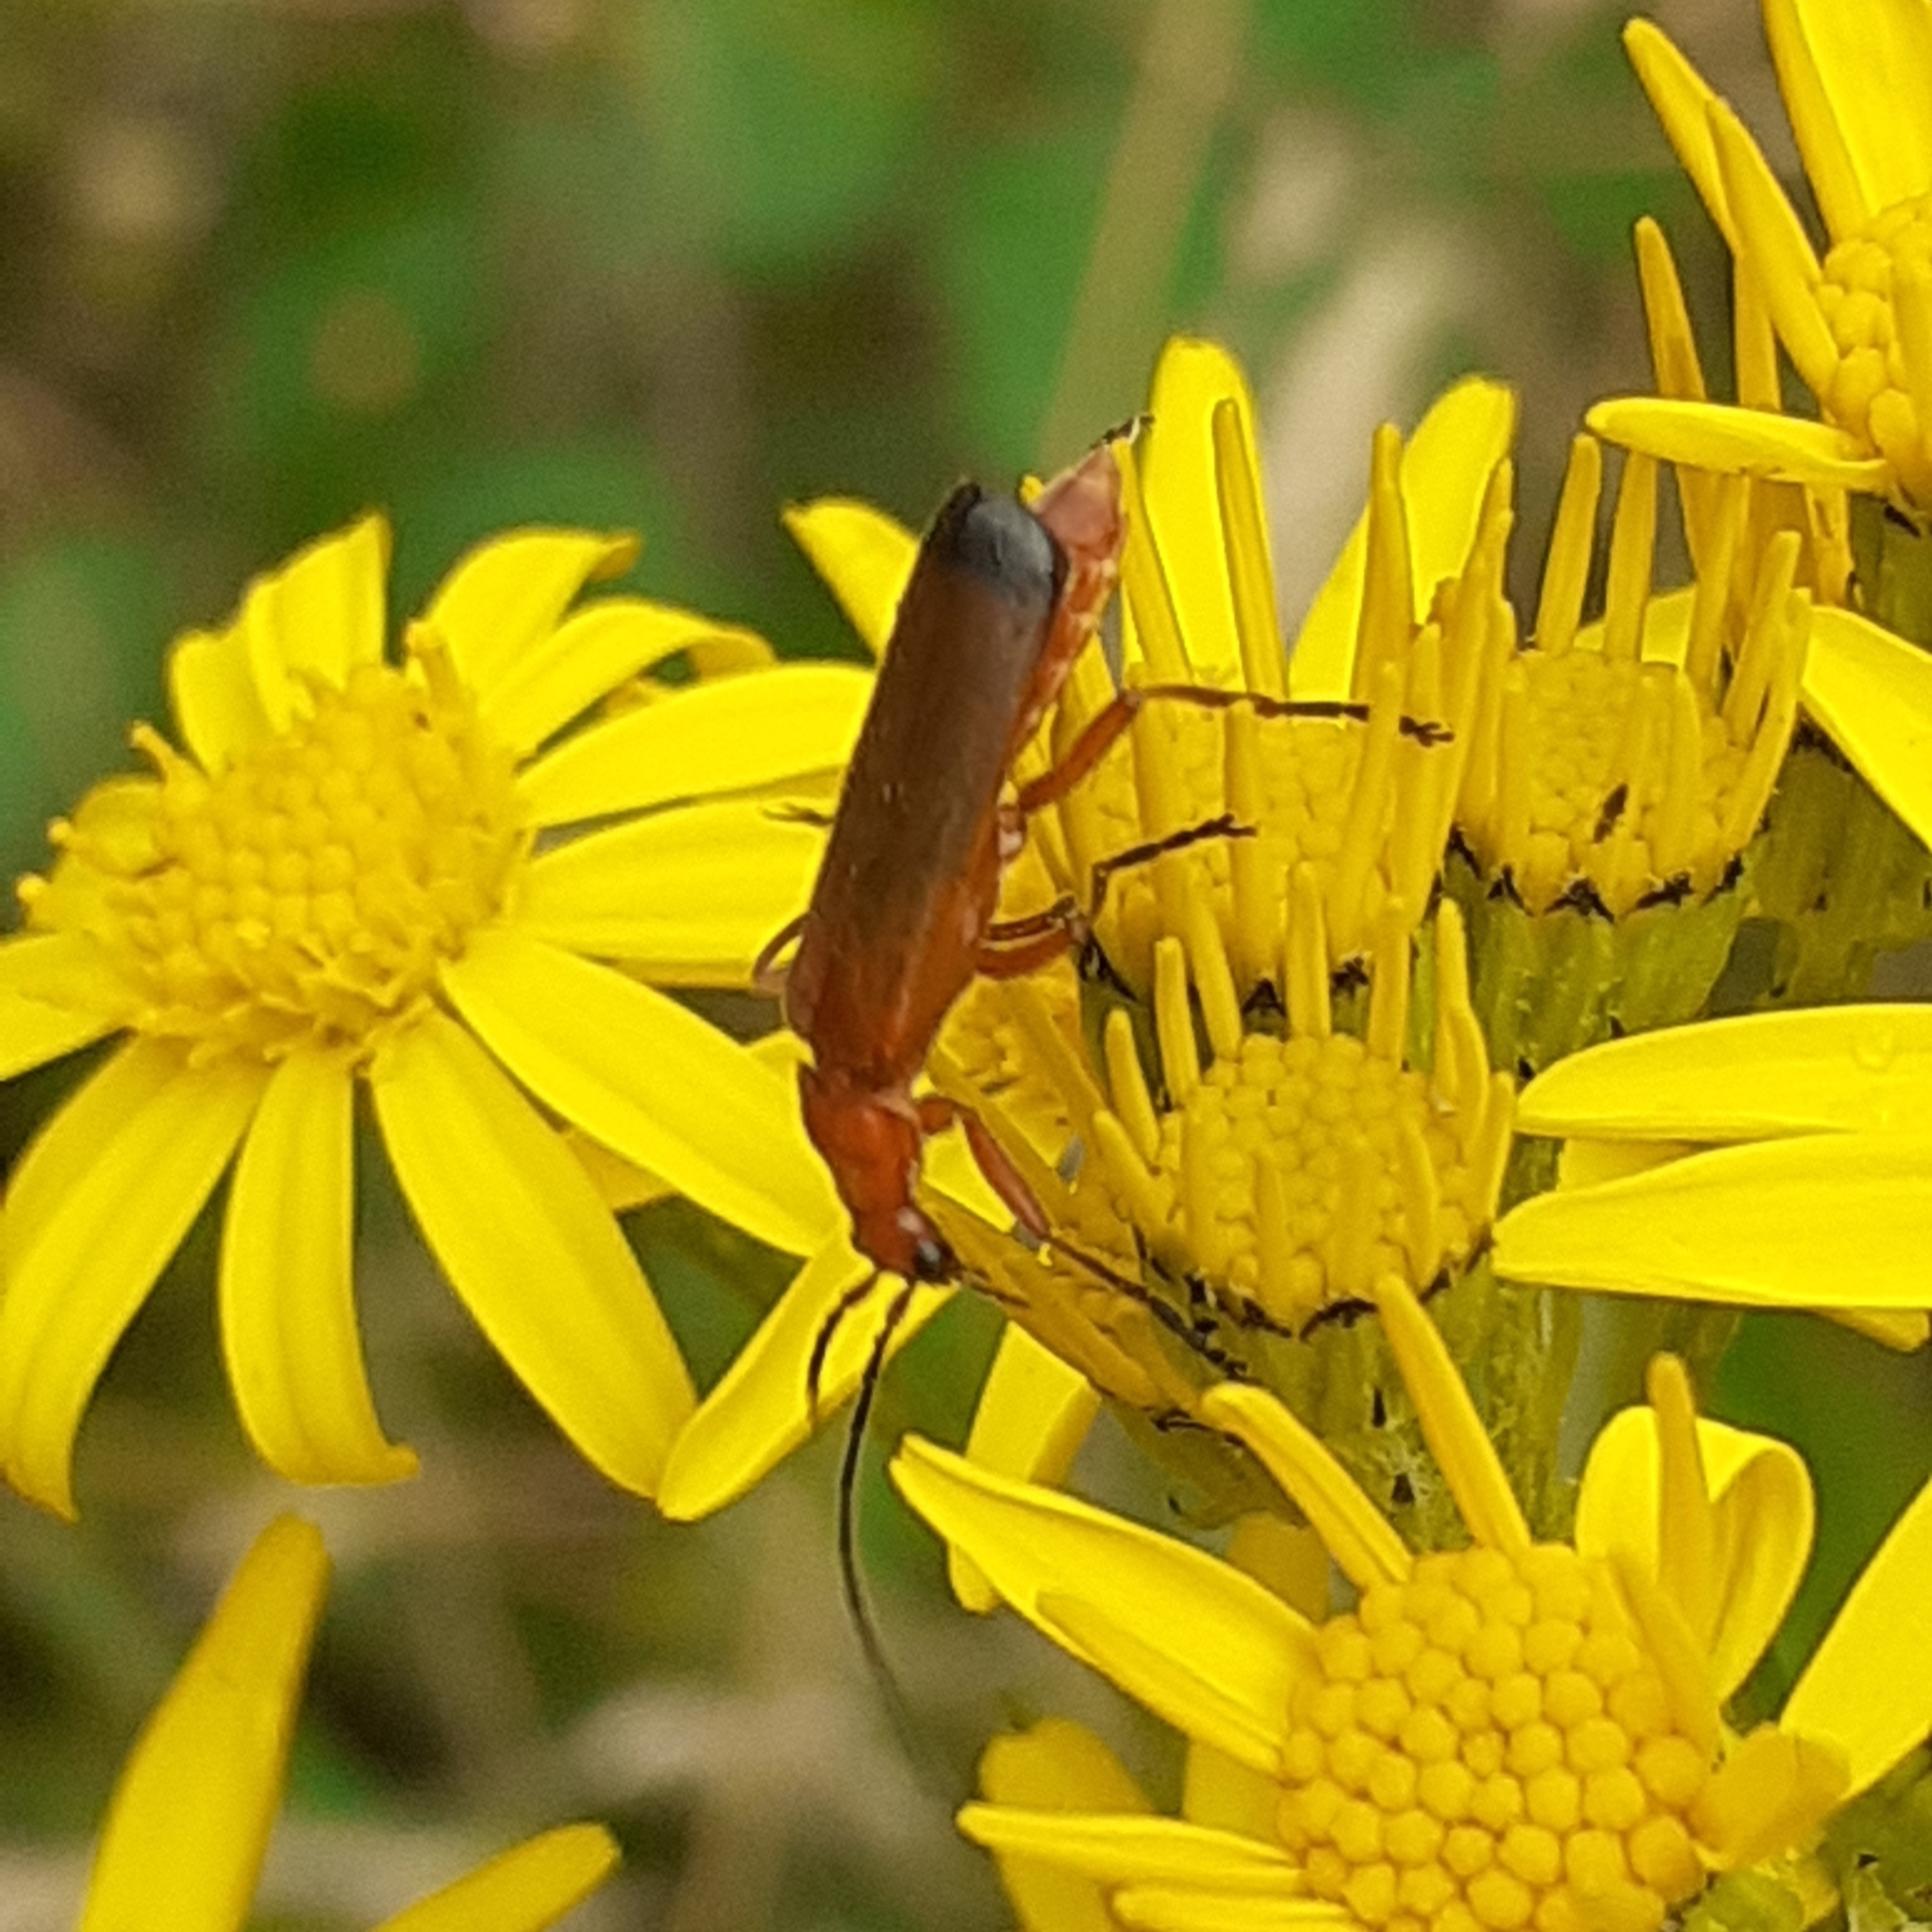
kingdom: Animalia
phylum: Arthropoda
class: Insecta
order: Coleoptera
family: Cantharidae
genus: Rhagonycha
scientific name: Rhagonycha fulva
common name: Common red soldier beetle
